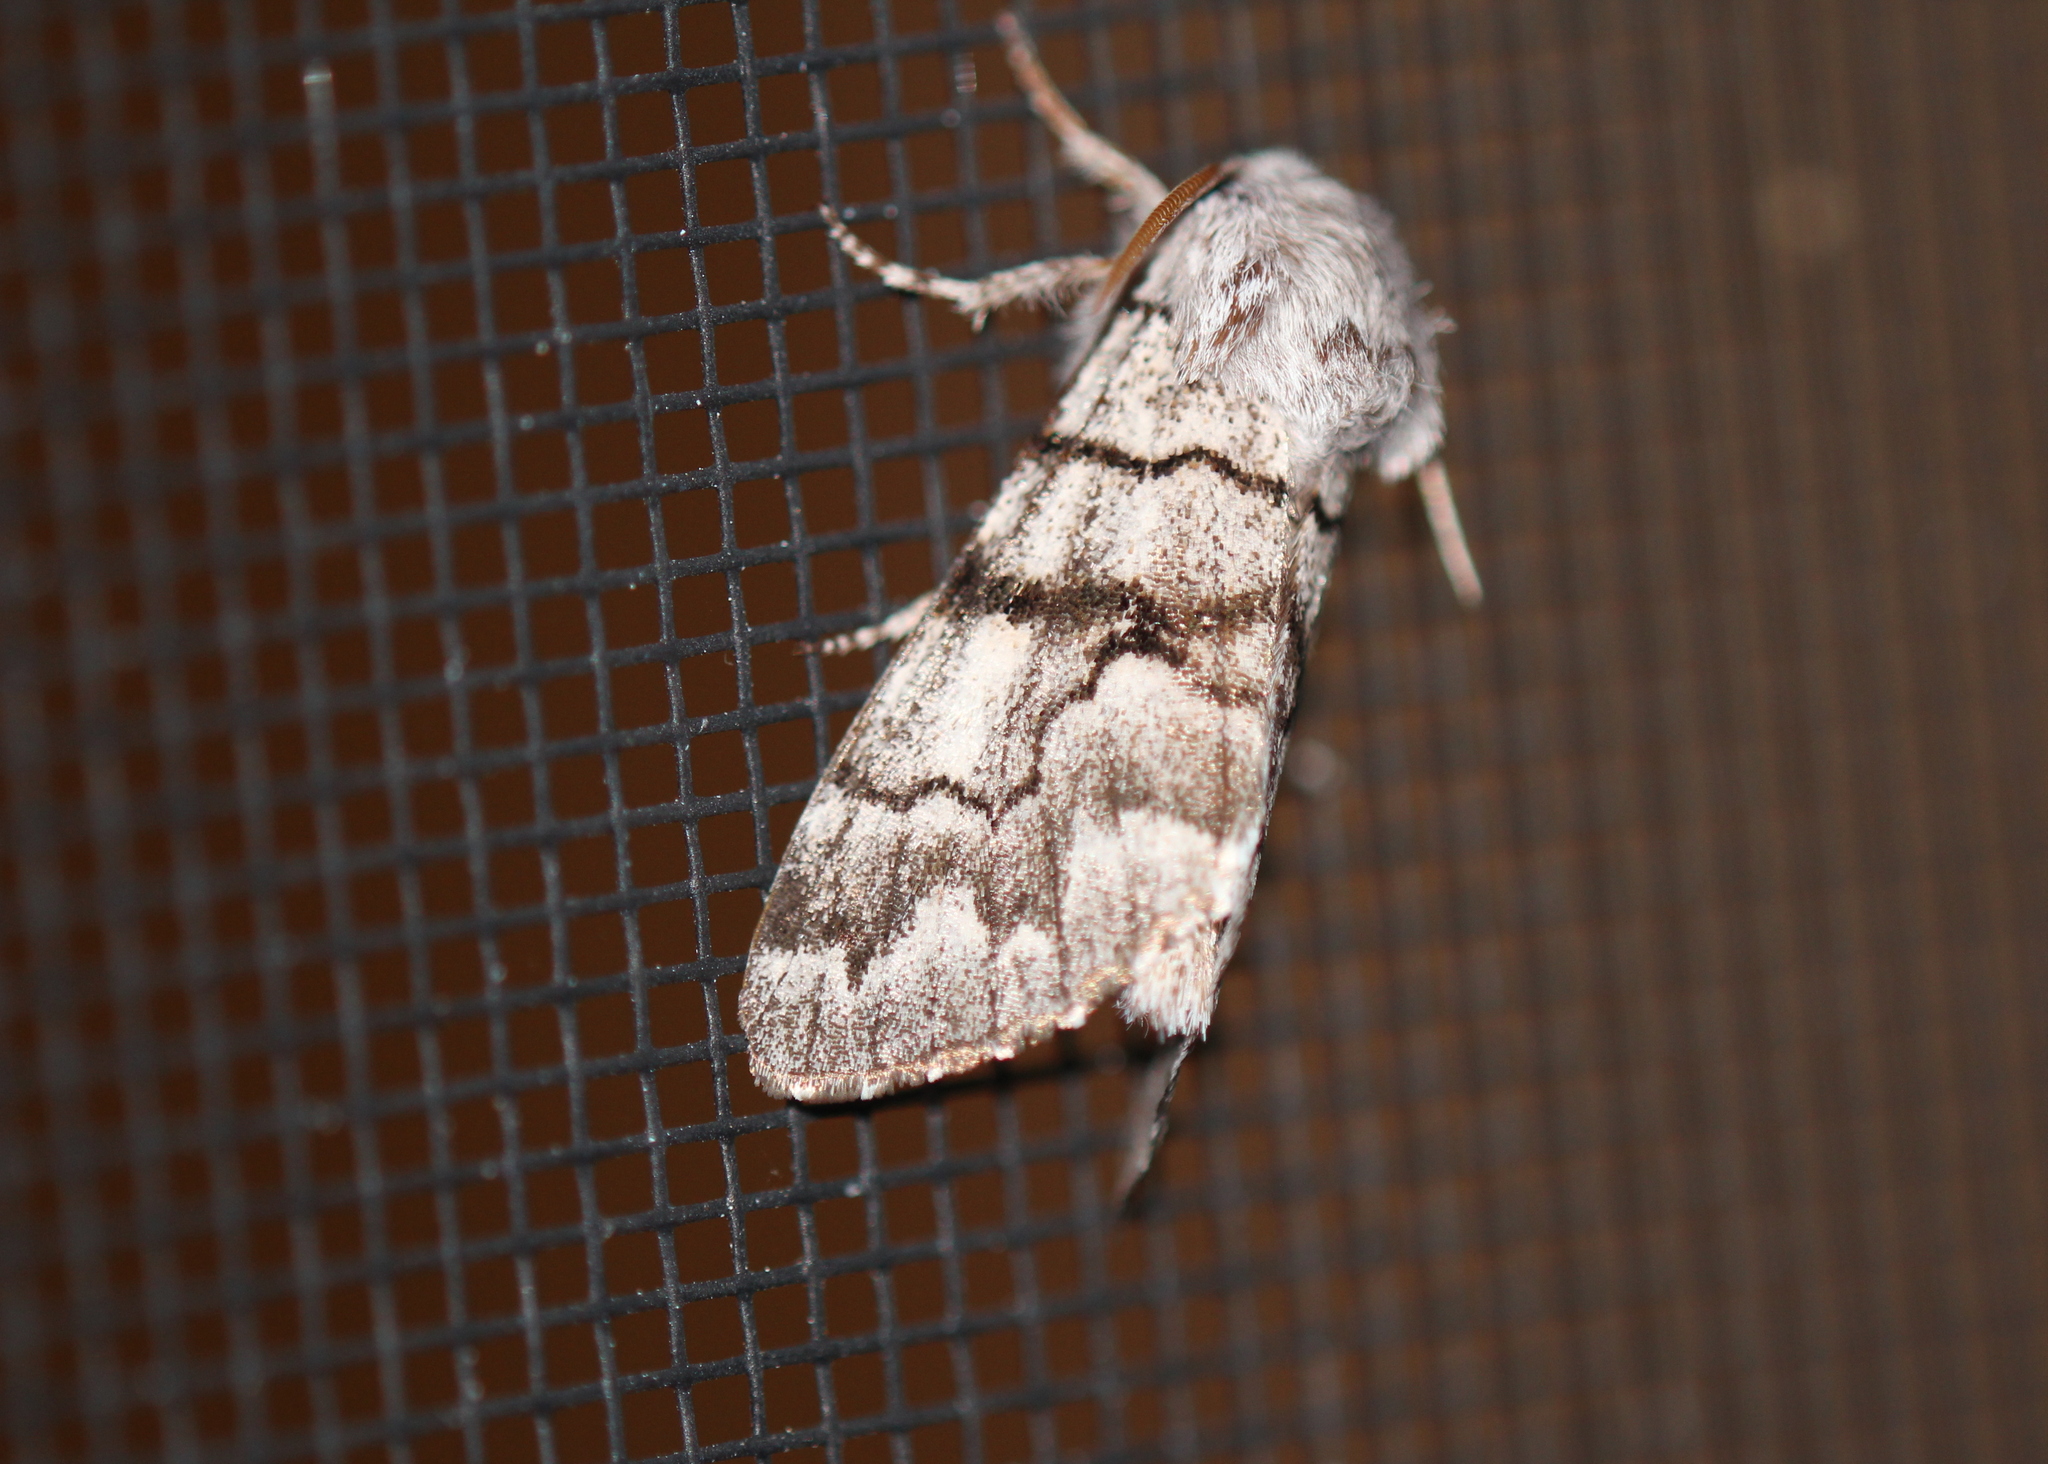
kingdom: Animalia
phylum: Arthropoda
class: Insecta
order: Lepidoptera
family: Noctuidae
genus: Panthea
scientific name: Panthea furcilla
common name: Eastern panthea moth
